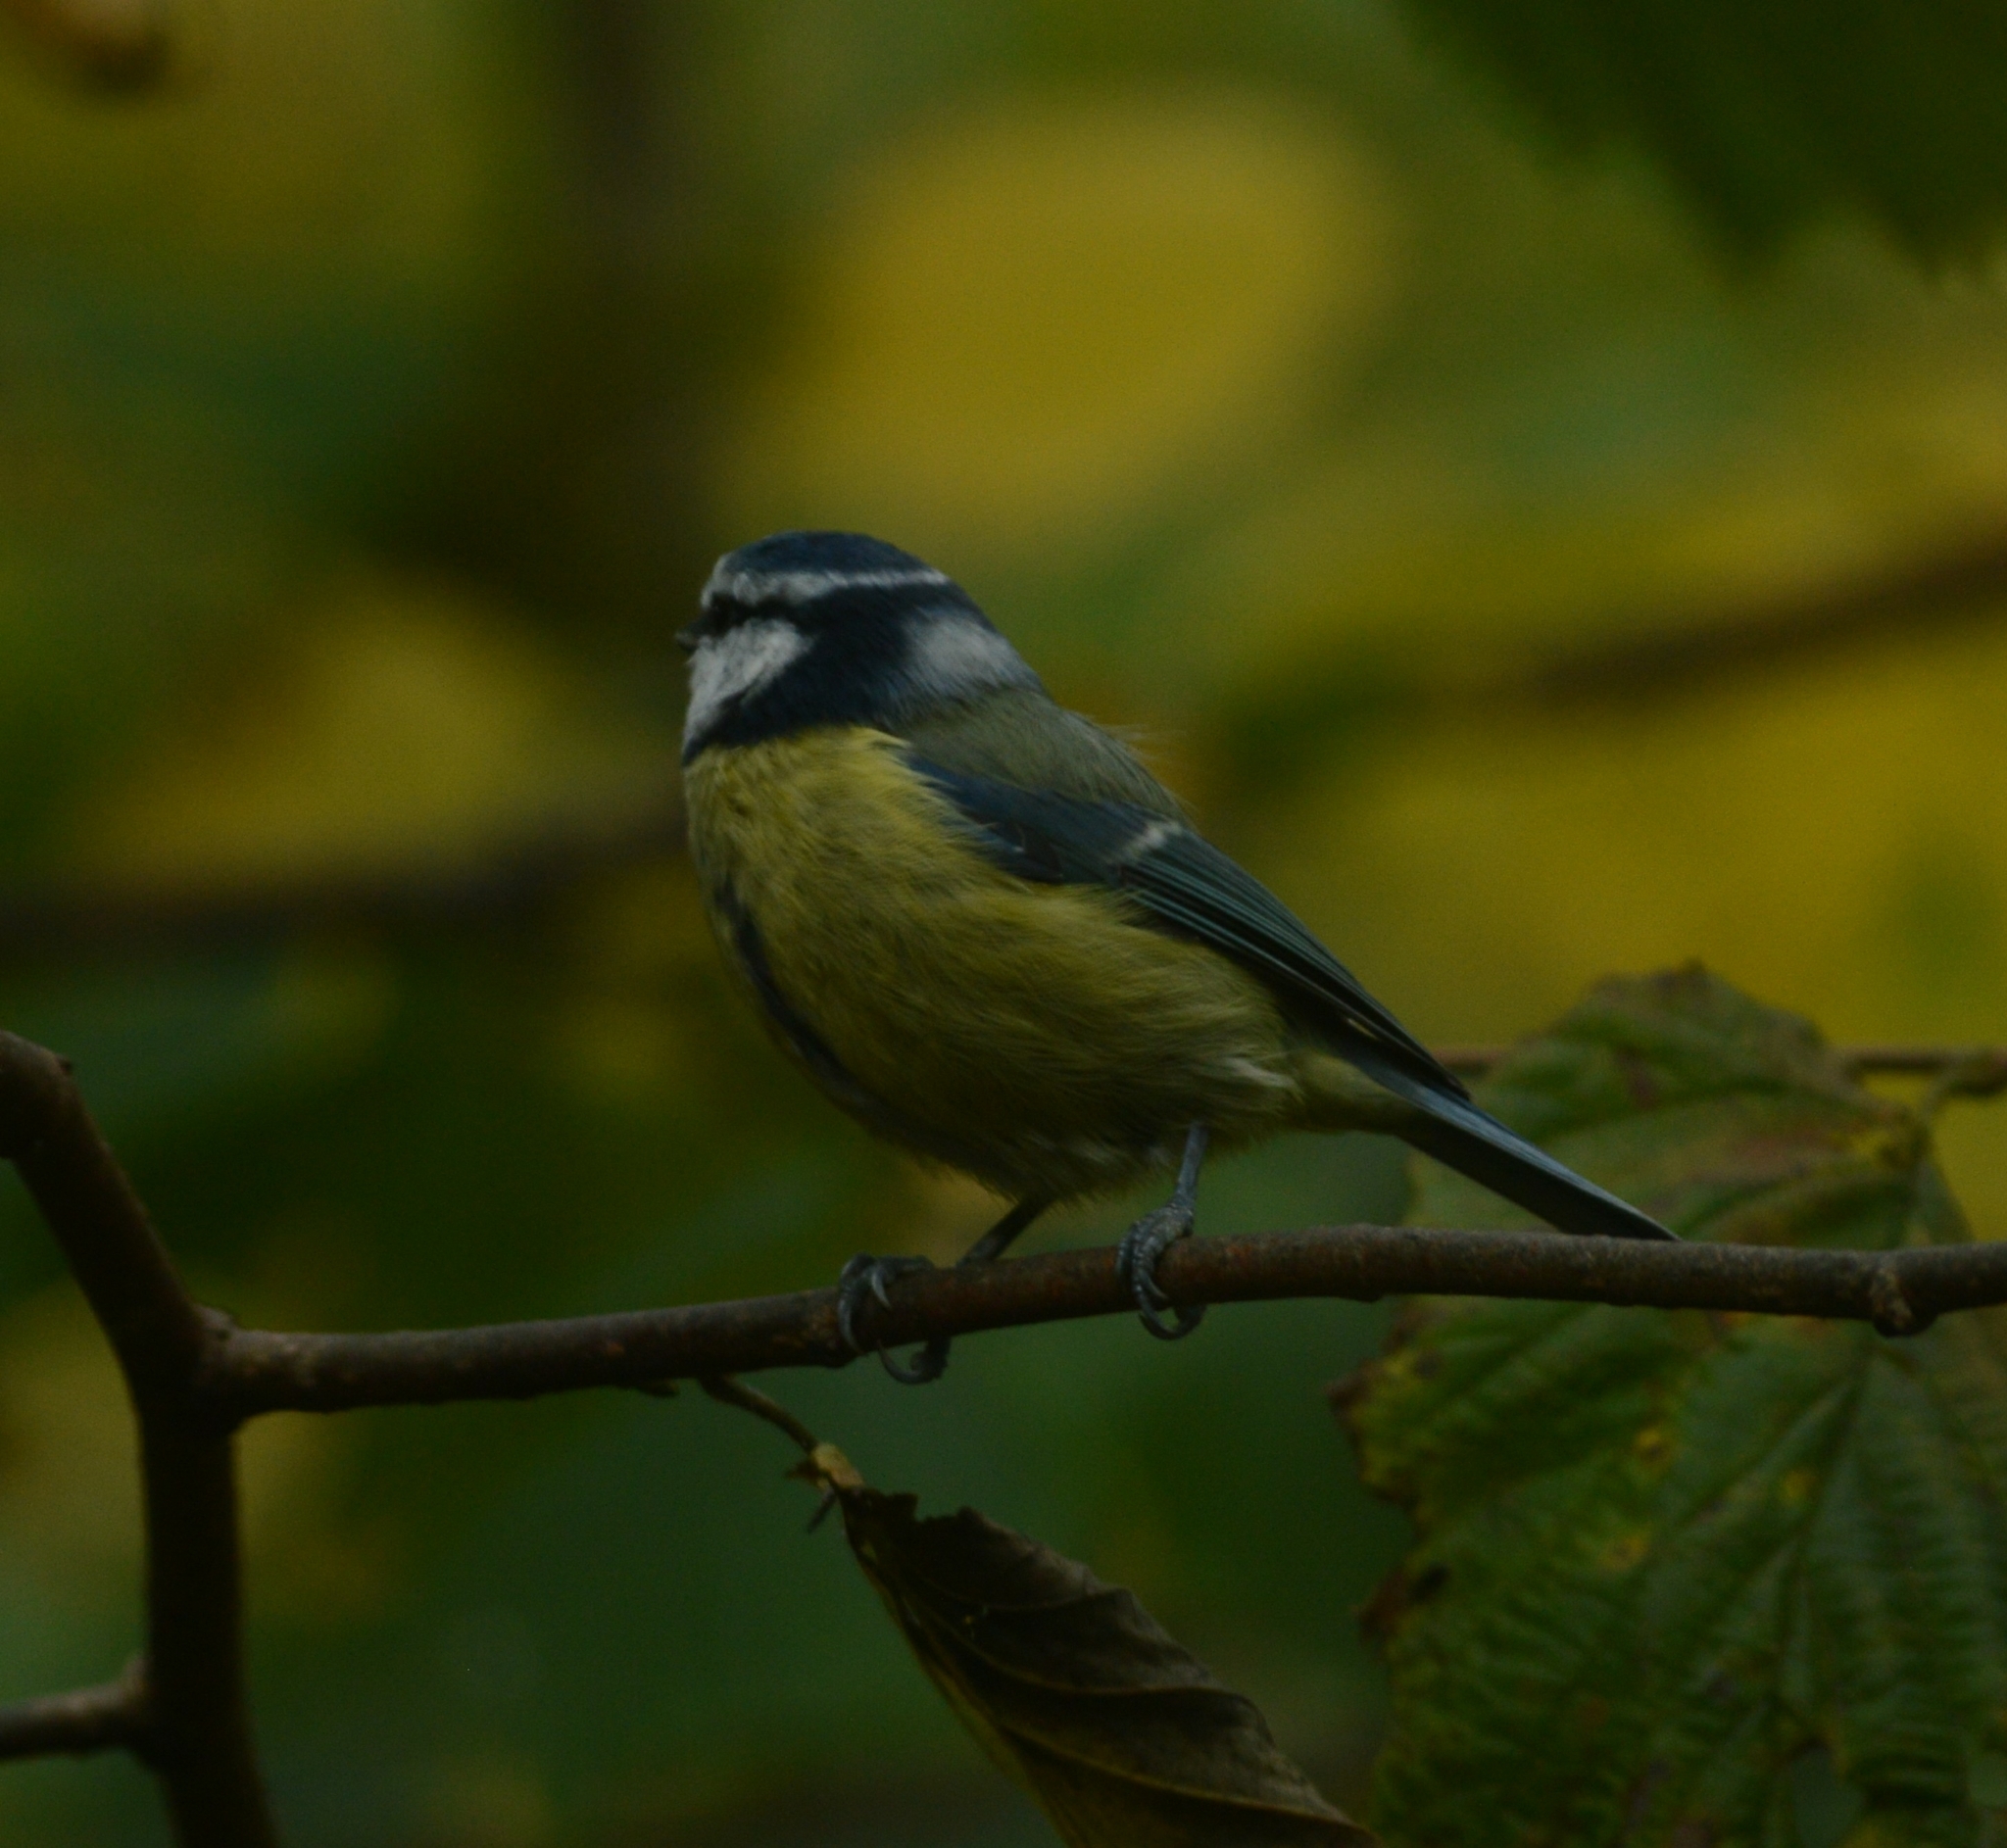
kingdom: Animalia
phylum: Chordata
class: Aves
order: Passeriformes
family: Paridae
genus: Cyanistes
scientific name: Cyanistes caeruleus
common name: Eurasian blue tit
